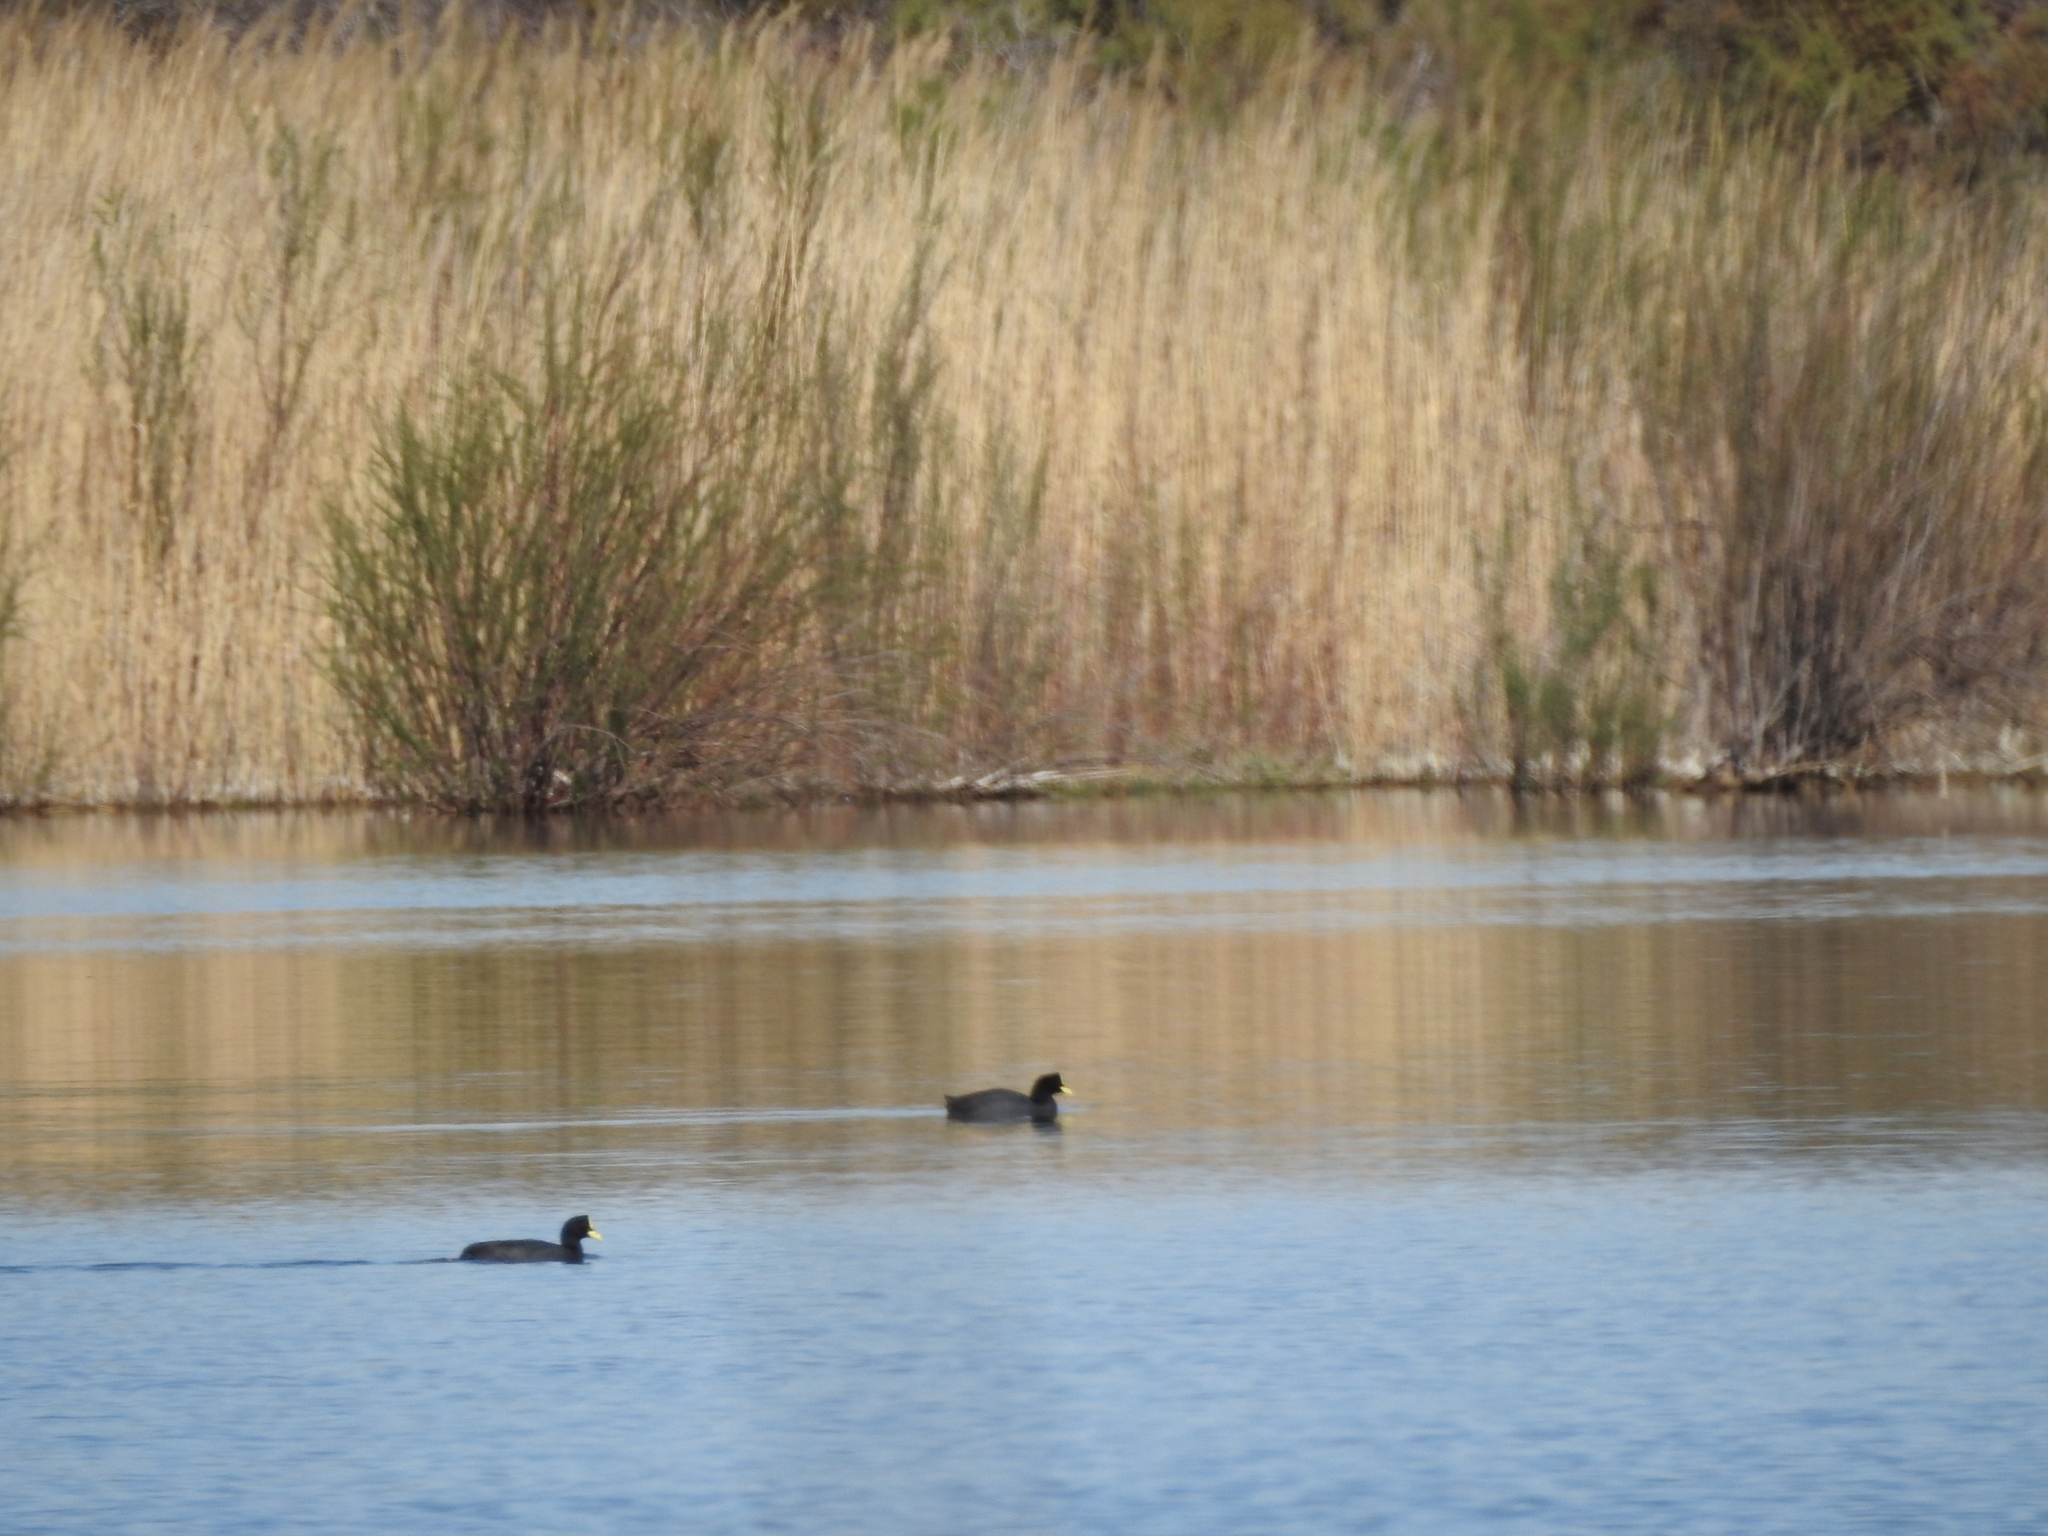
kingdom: Animalia
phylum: Chordata
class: Aves
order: Gruiformes
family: Rallidae
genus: Fulica
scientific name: Fulica armillata
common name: Red-gartered coot
